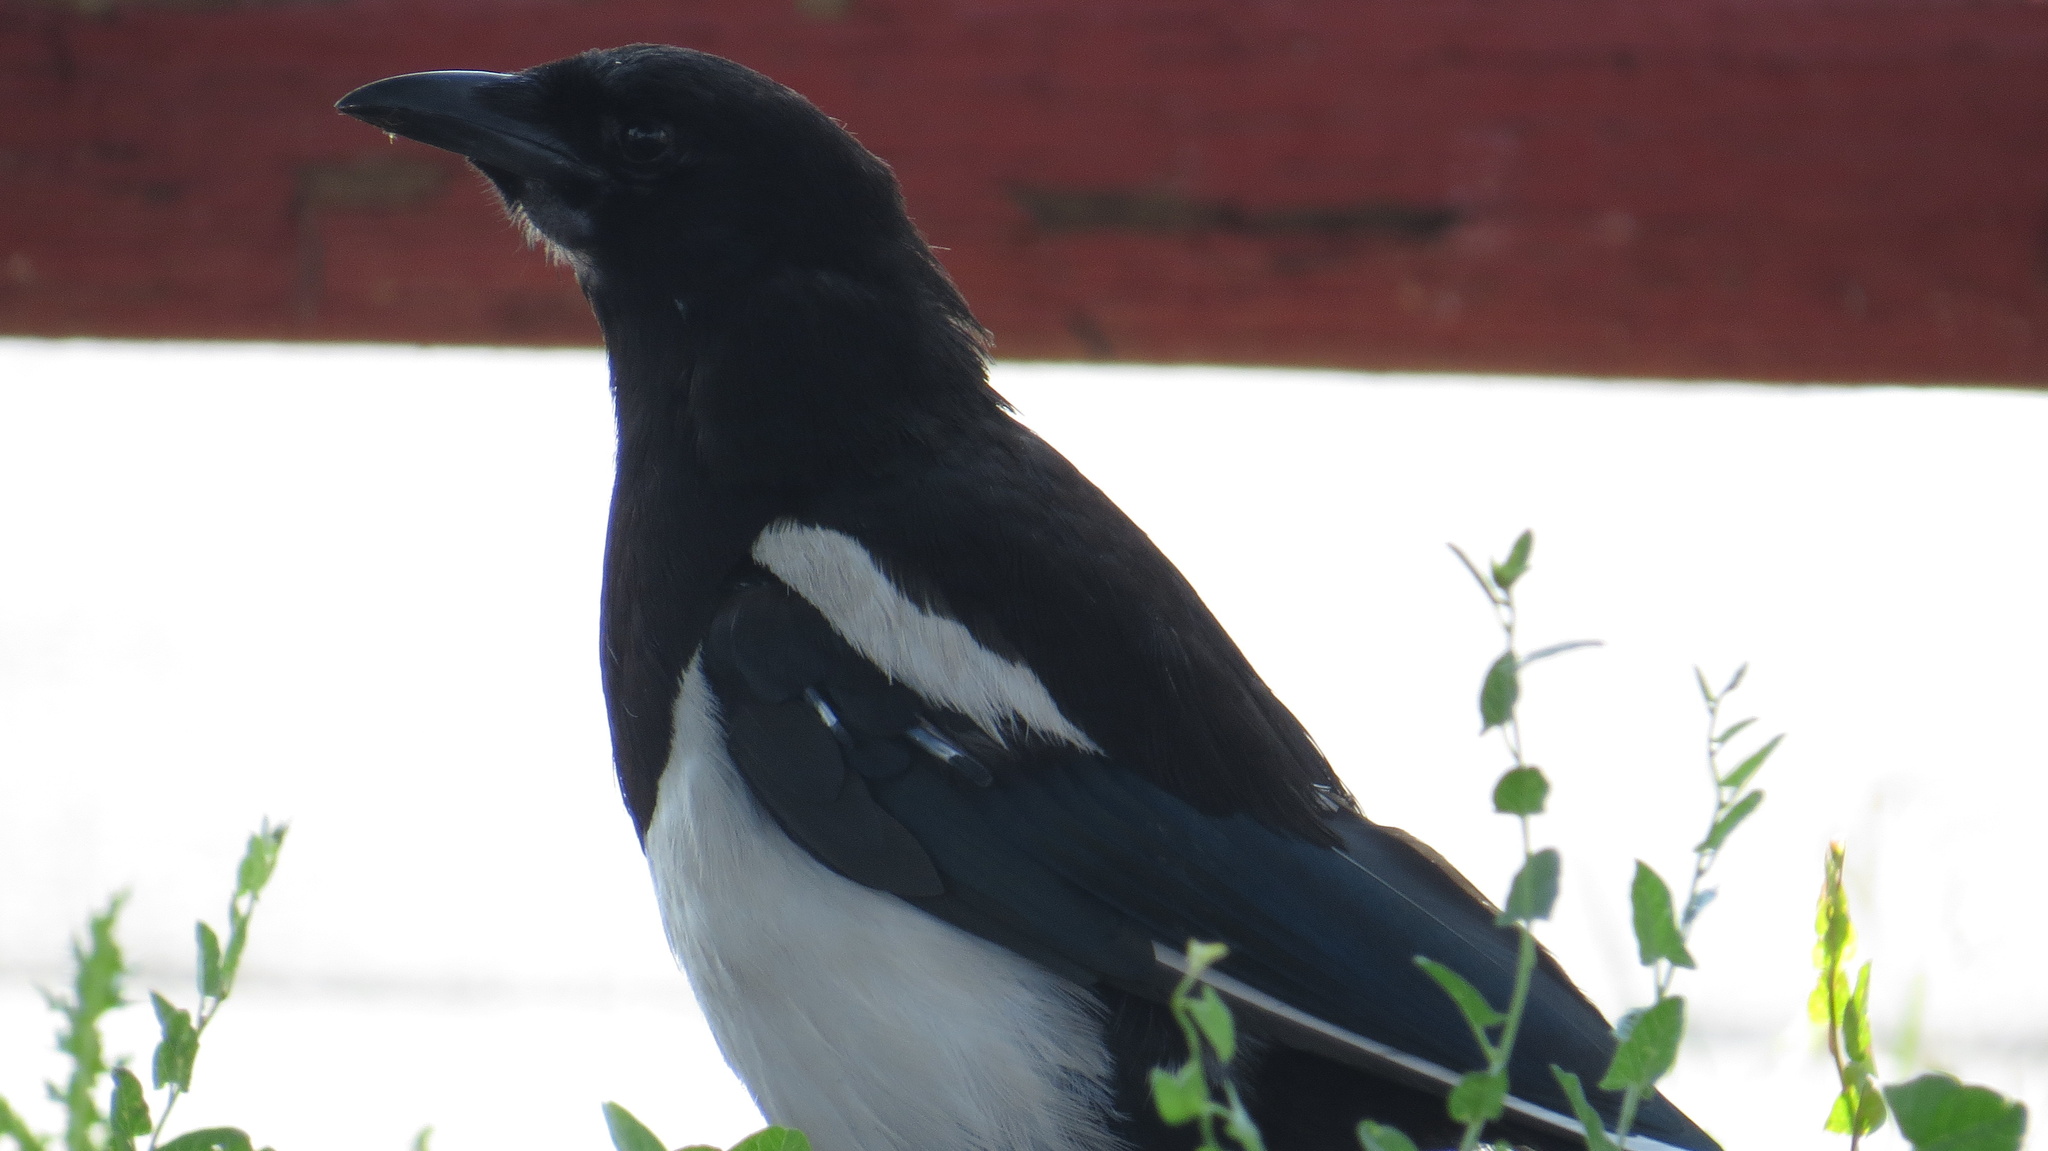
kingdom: Animalia
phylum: Chordata
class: Aves
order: Passeriformes
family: Corvidae
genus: Pica
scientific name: Pica hudsonia
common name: Black-billed magpie
